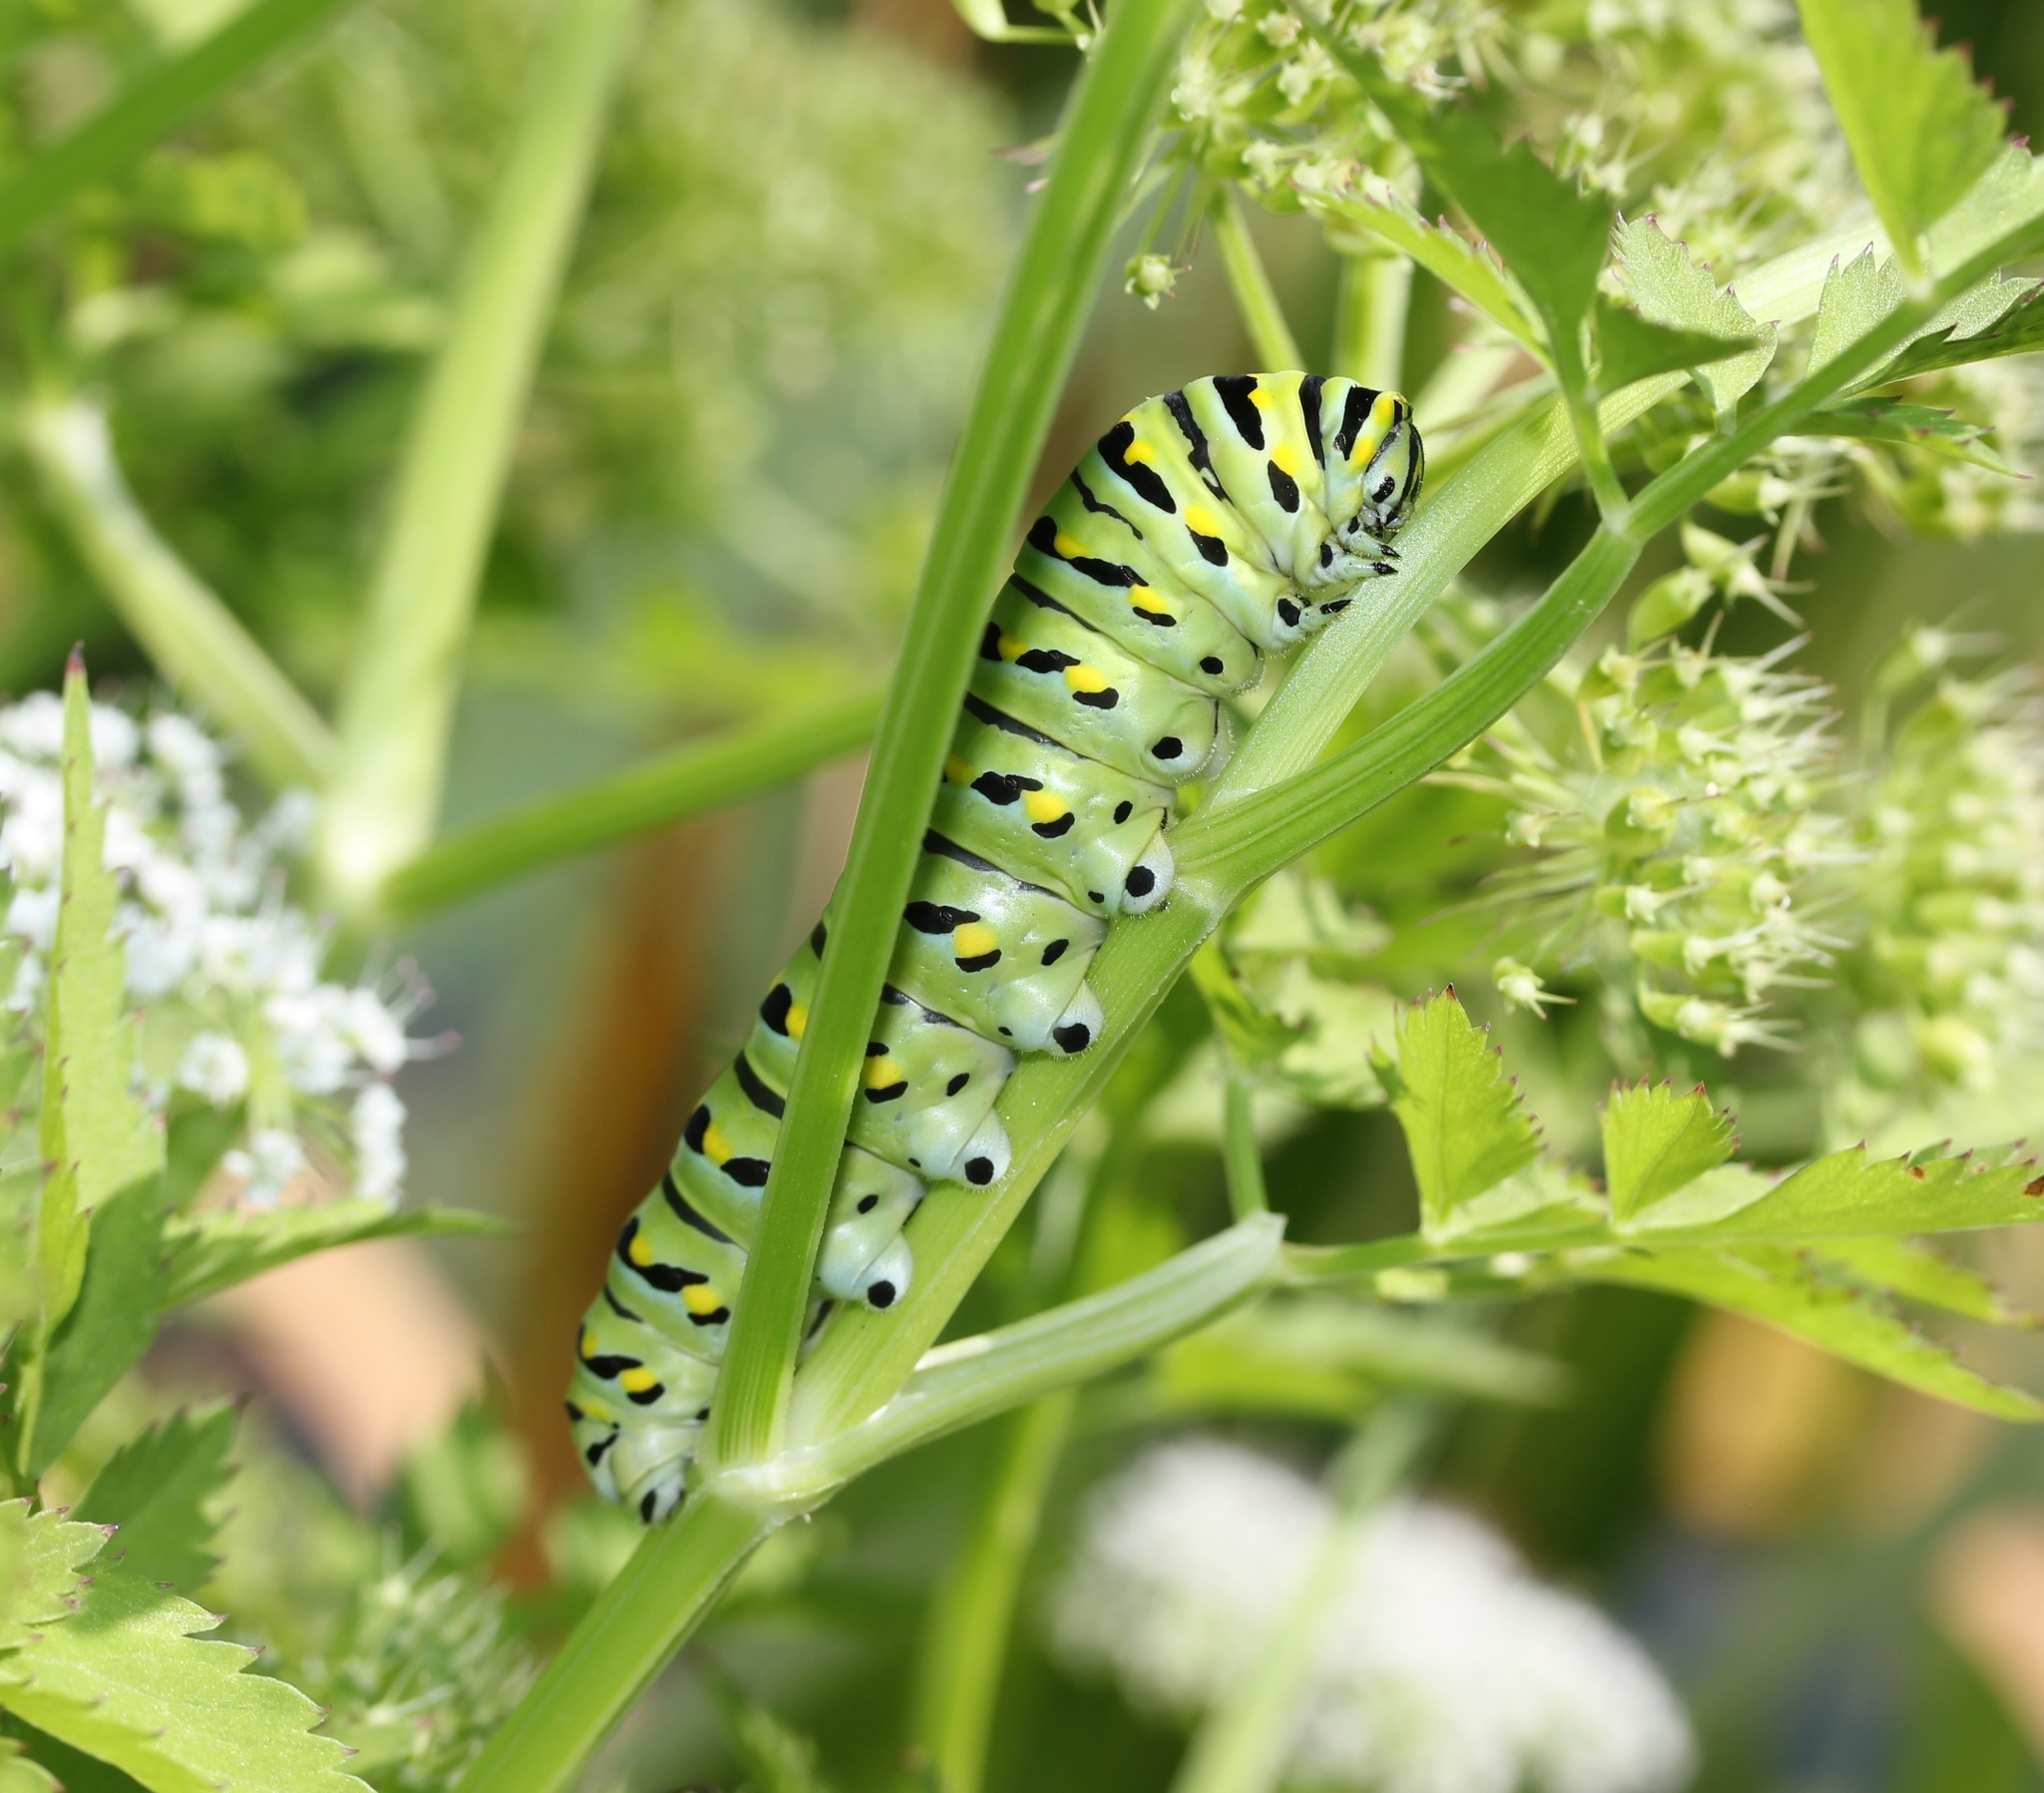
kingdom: Animalia
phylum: Arthropoda
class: Insecta
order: Lepidoptera
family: Papilionidae
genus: Papilio
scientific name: Papilio polyxenes
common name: Black swallowtail
